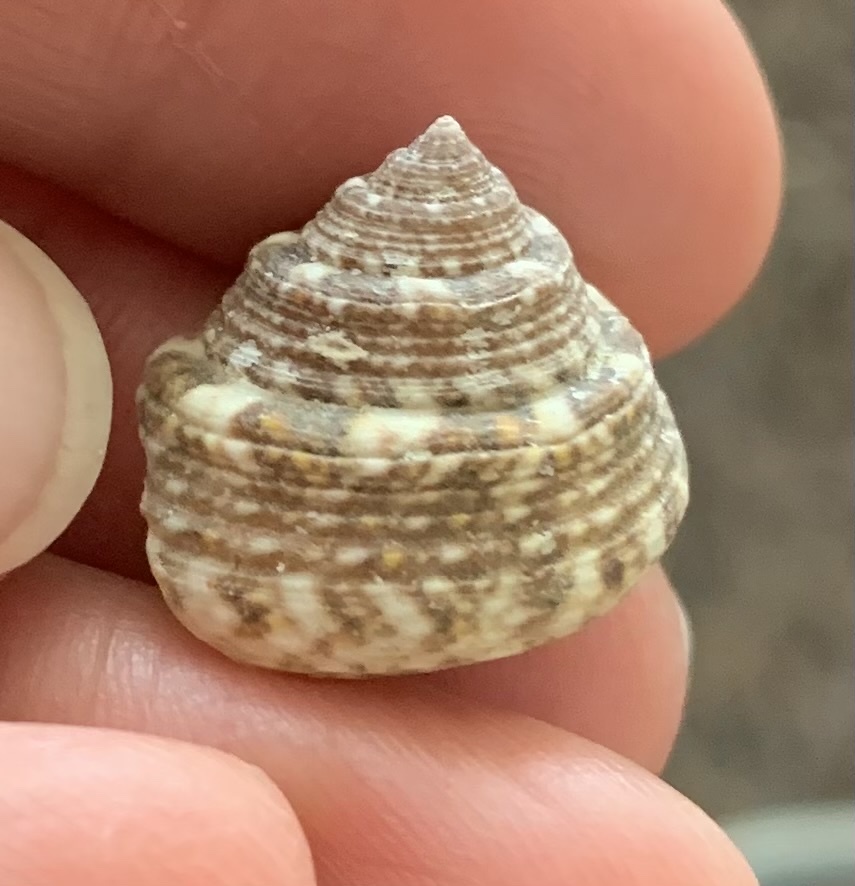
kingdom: Animalia
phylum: Mollusca
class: Gastropoda
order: Trochida
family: Trochidae
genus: Steromphala
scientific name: Steromphala albida
